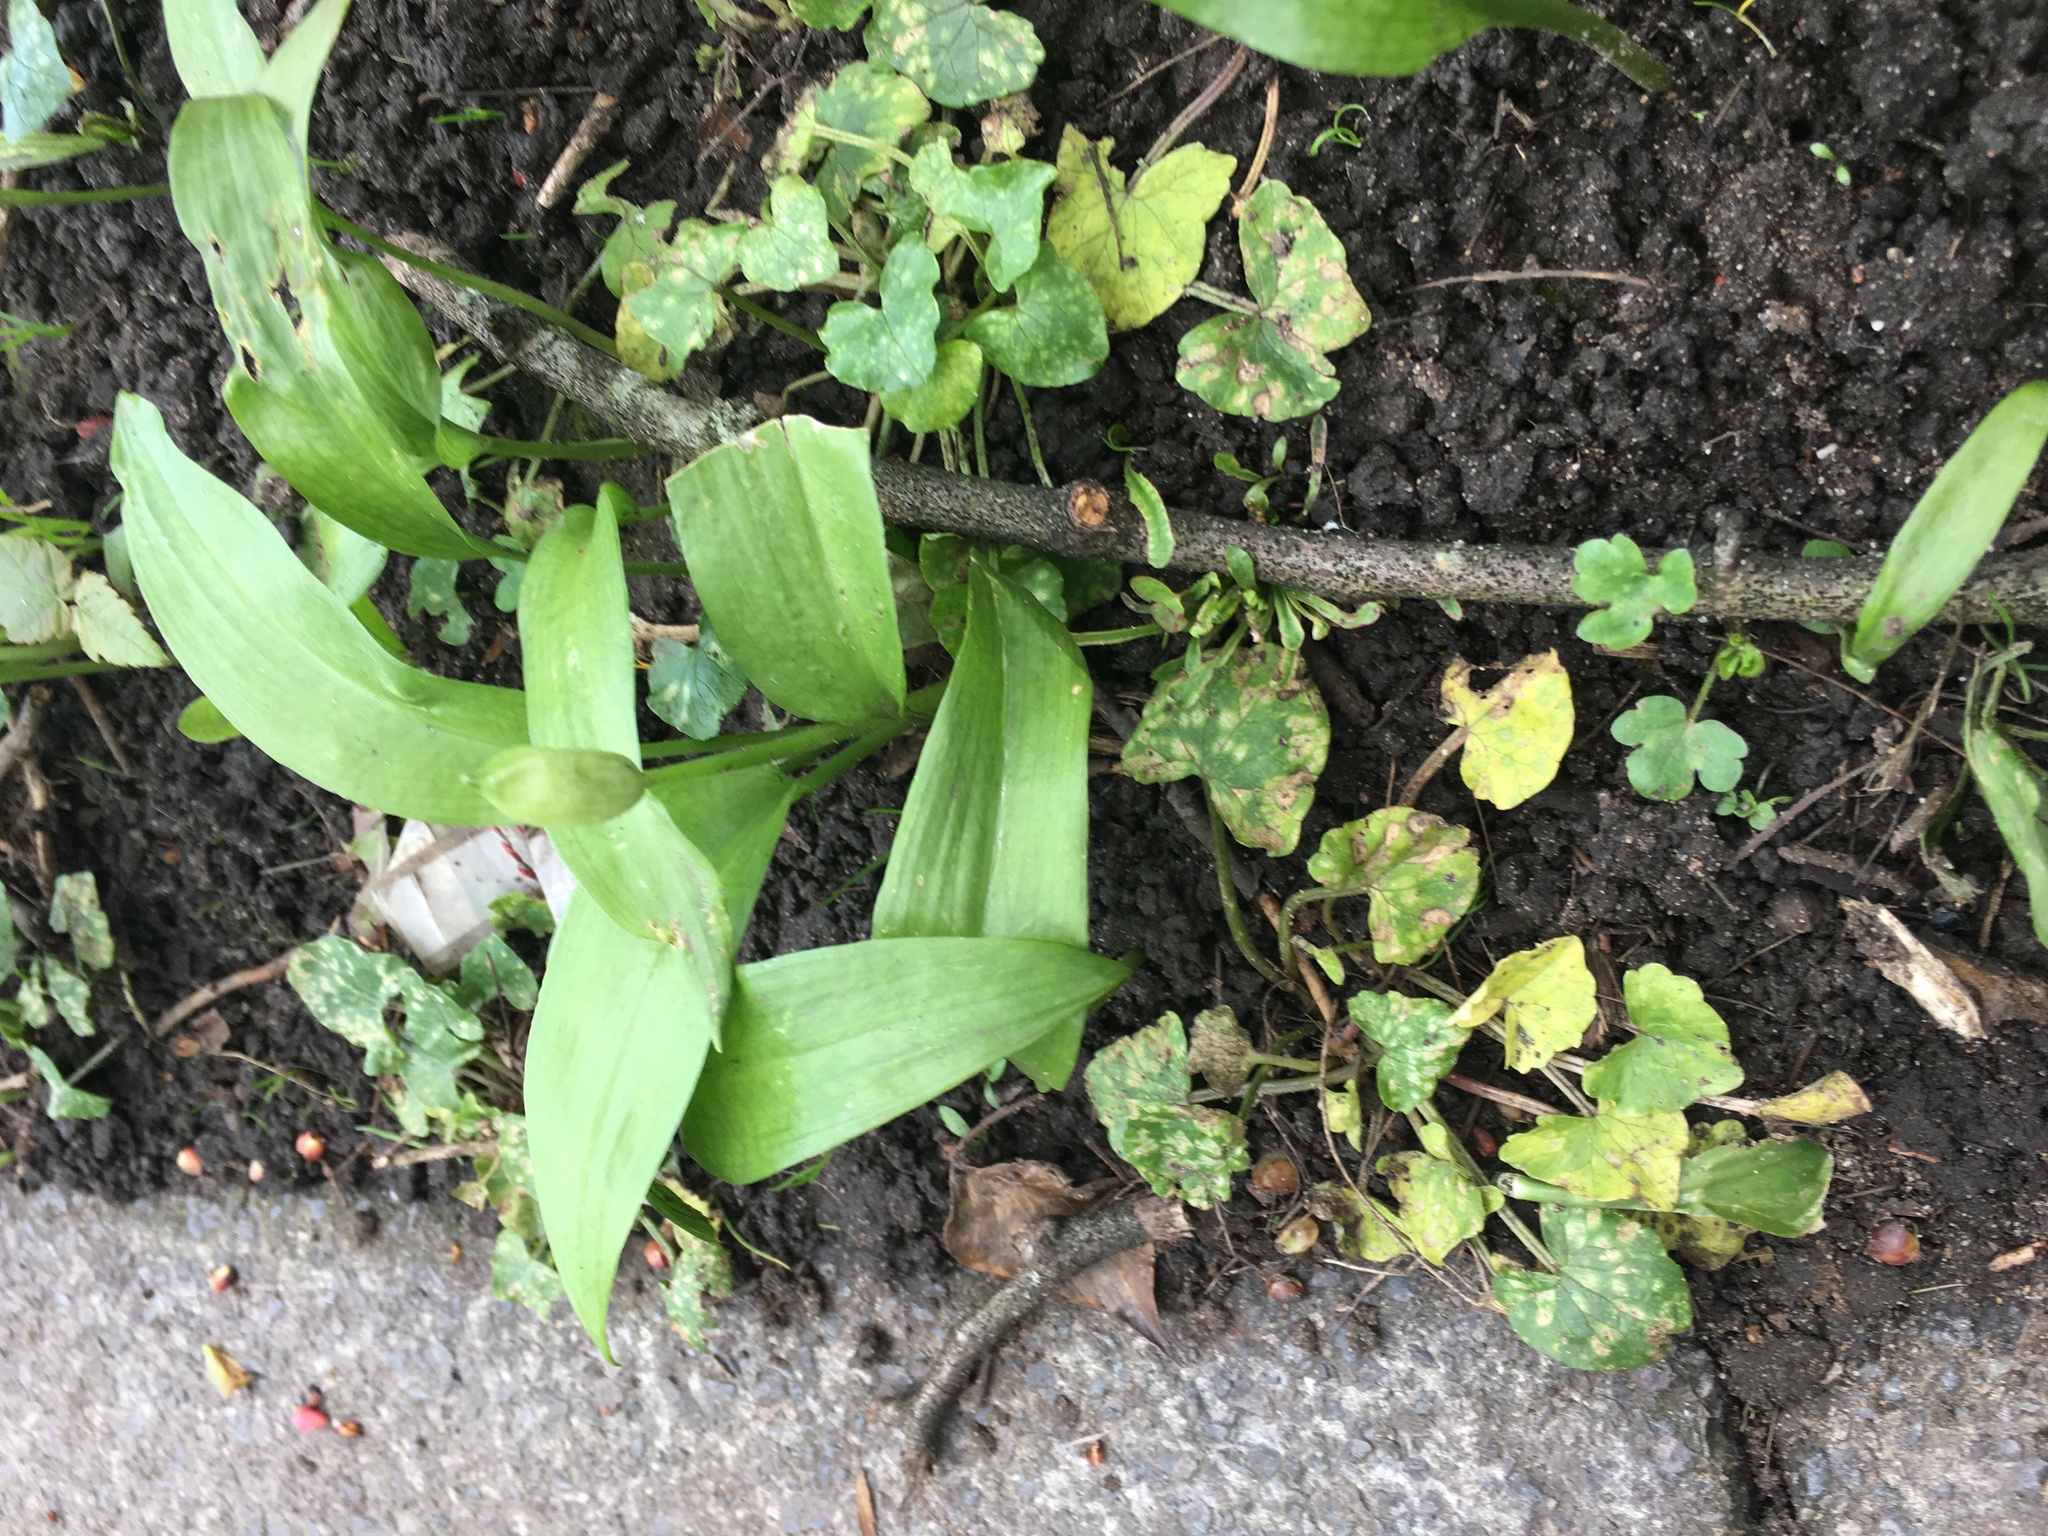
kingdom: Plantae
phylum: Tracheophyta
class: Liliopsida
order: Asparagales
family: Amaryllidaceae
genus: Allium
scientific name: Allium ursinum
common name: Ramsons
